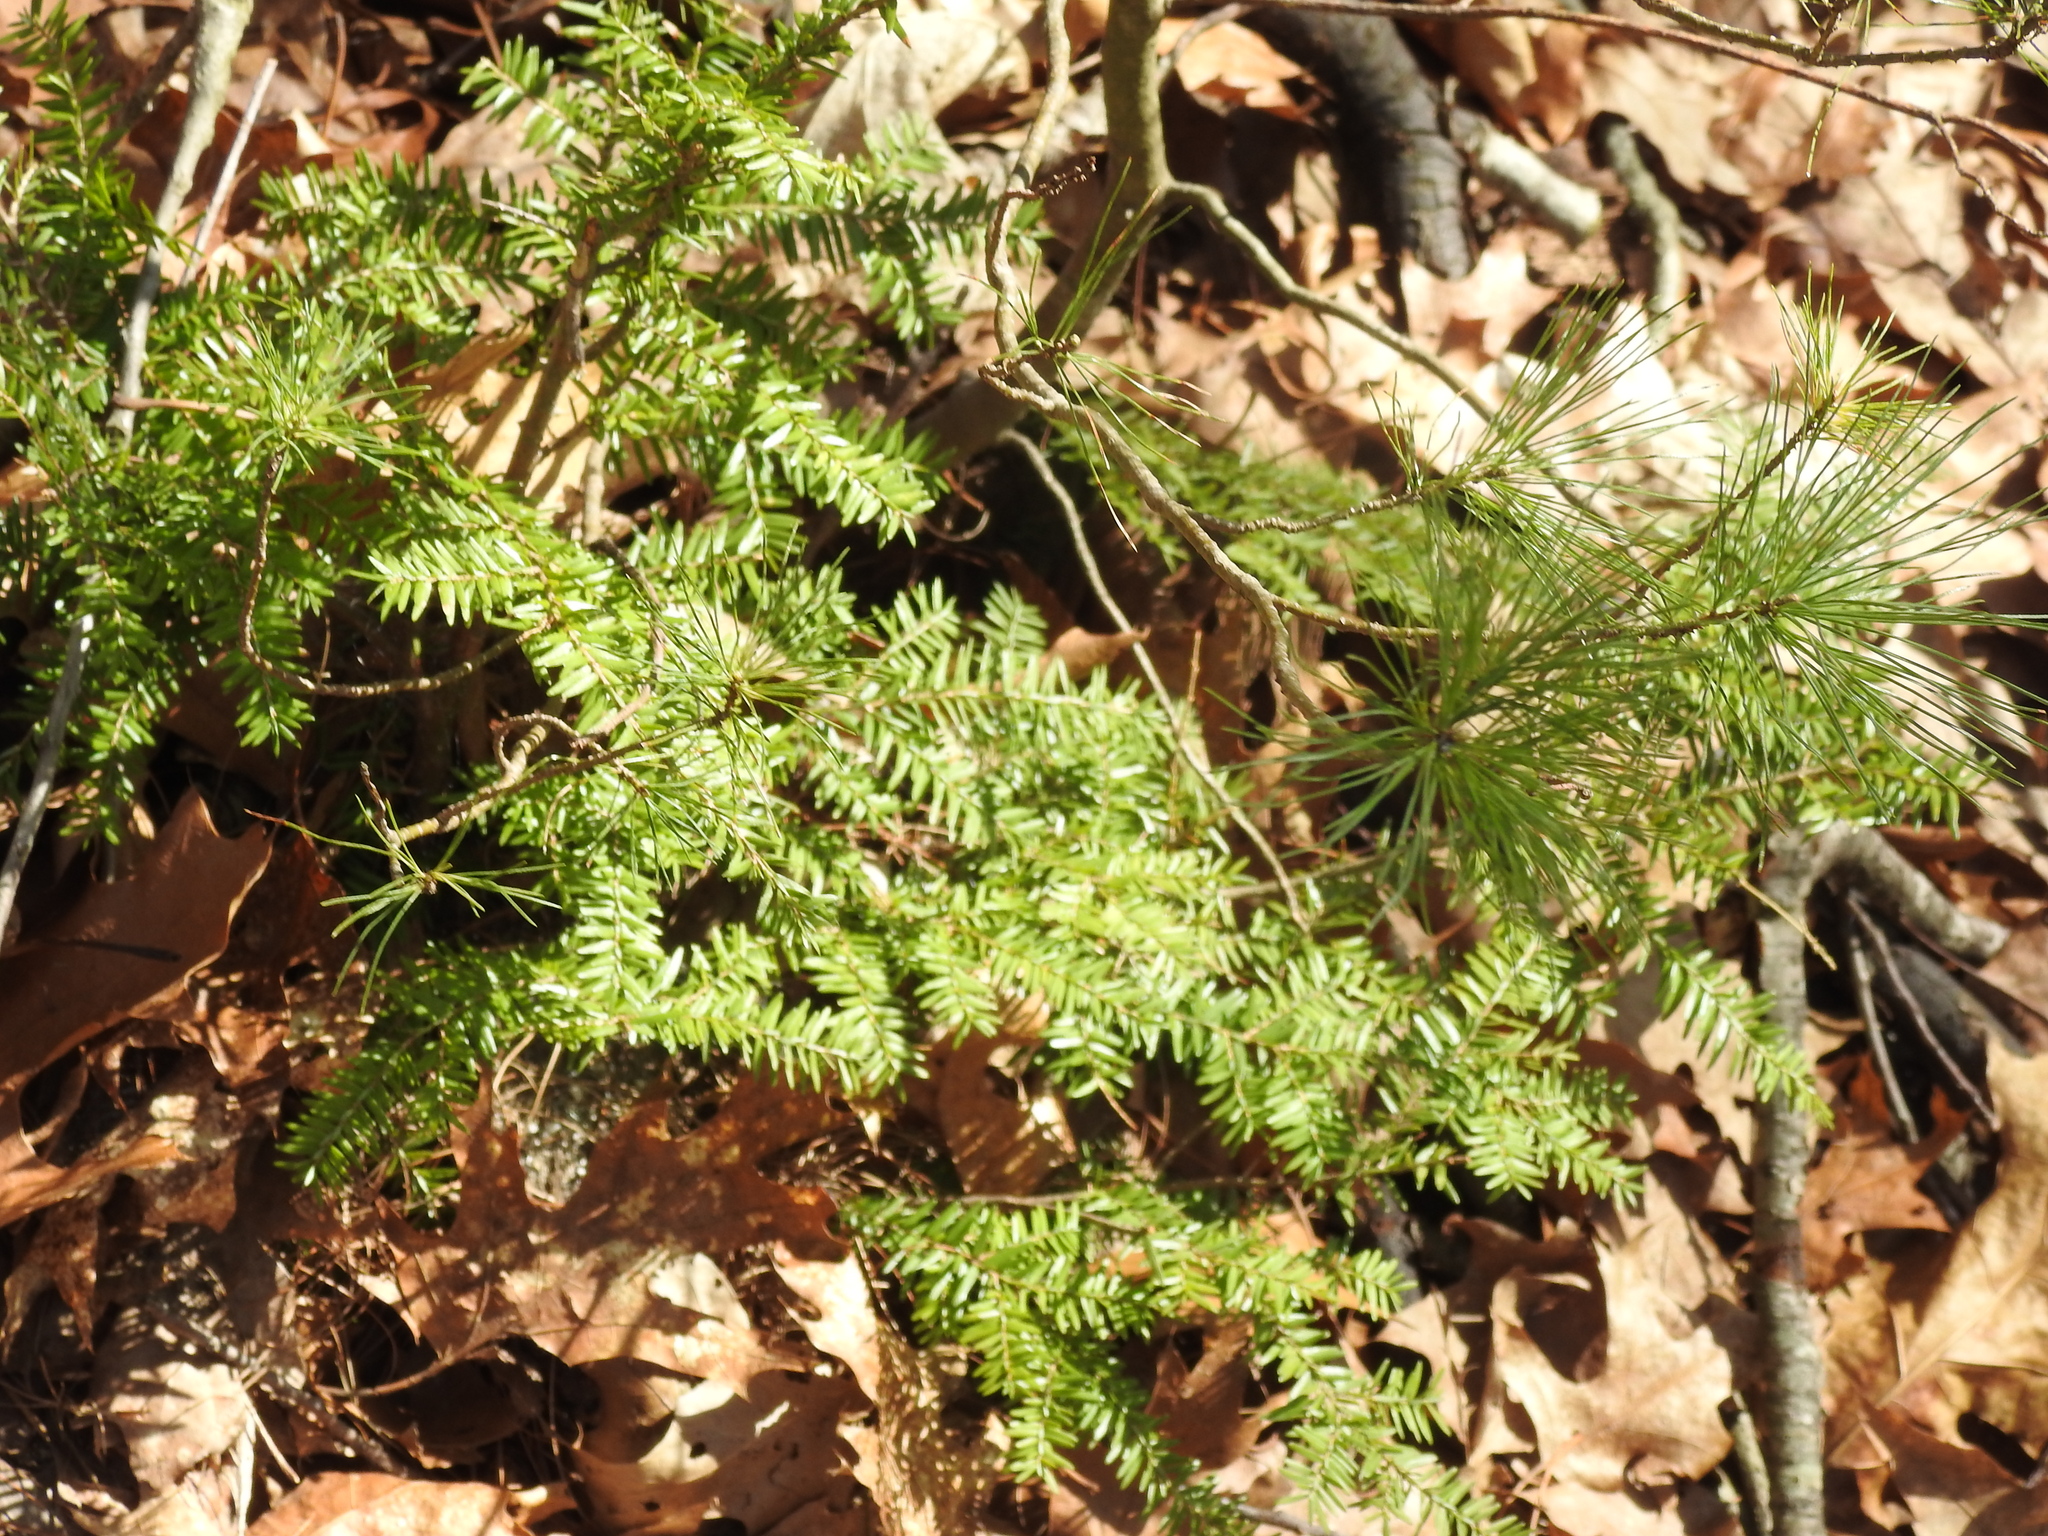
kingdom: Plantae
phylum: Tracheophyta
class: Pinopsida
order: Pinales
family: Pinaceae
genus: Tsuga
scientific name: Tsuga canadensis
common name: Eastern hemlock
